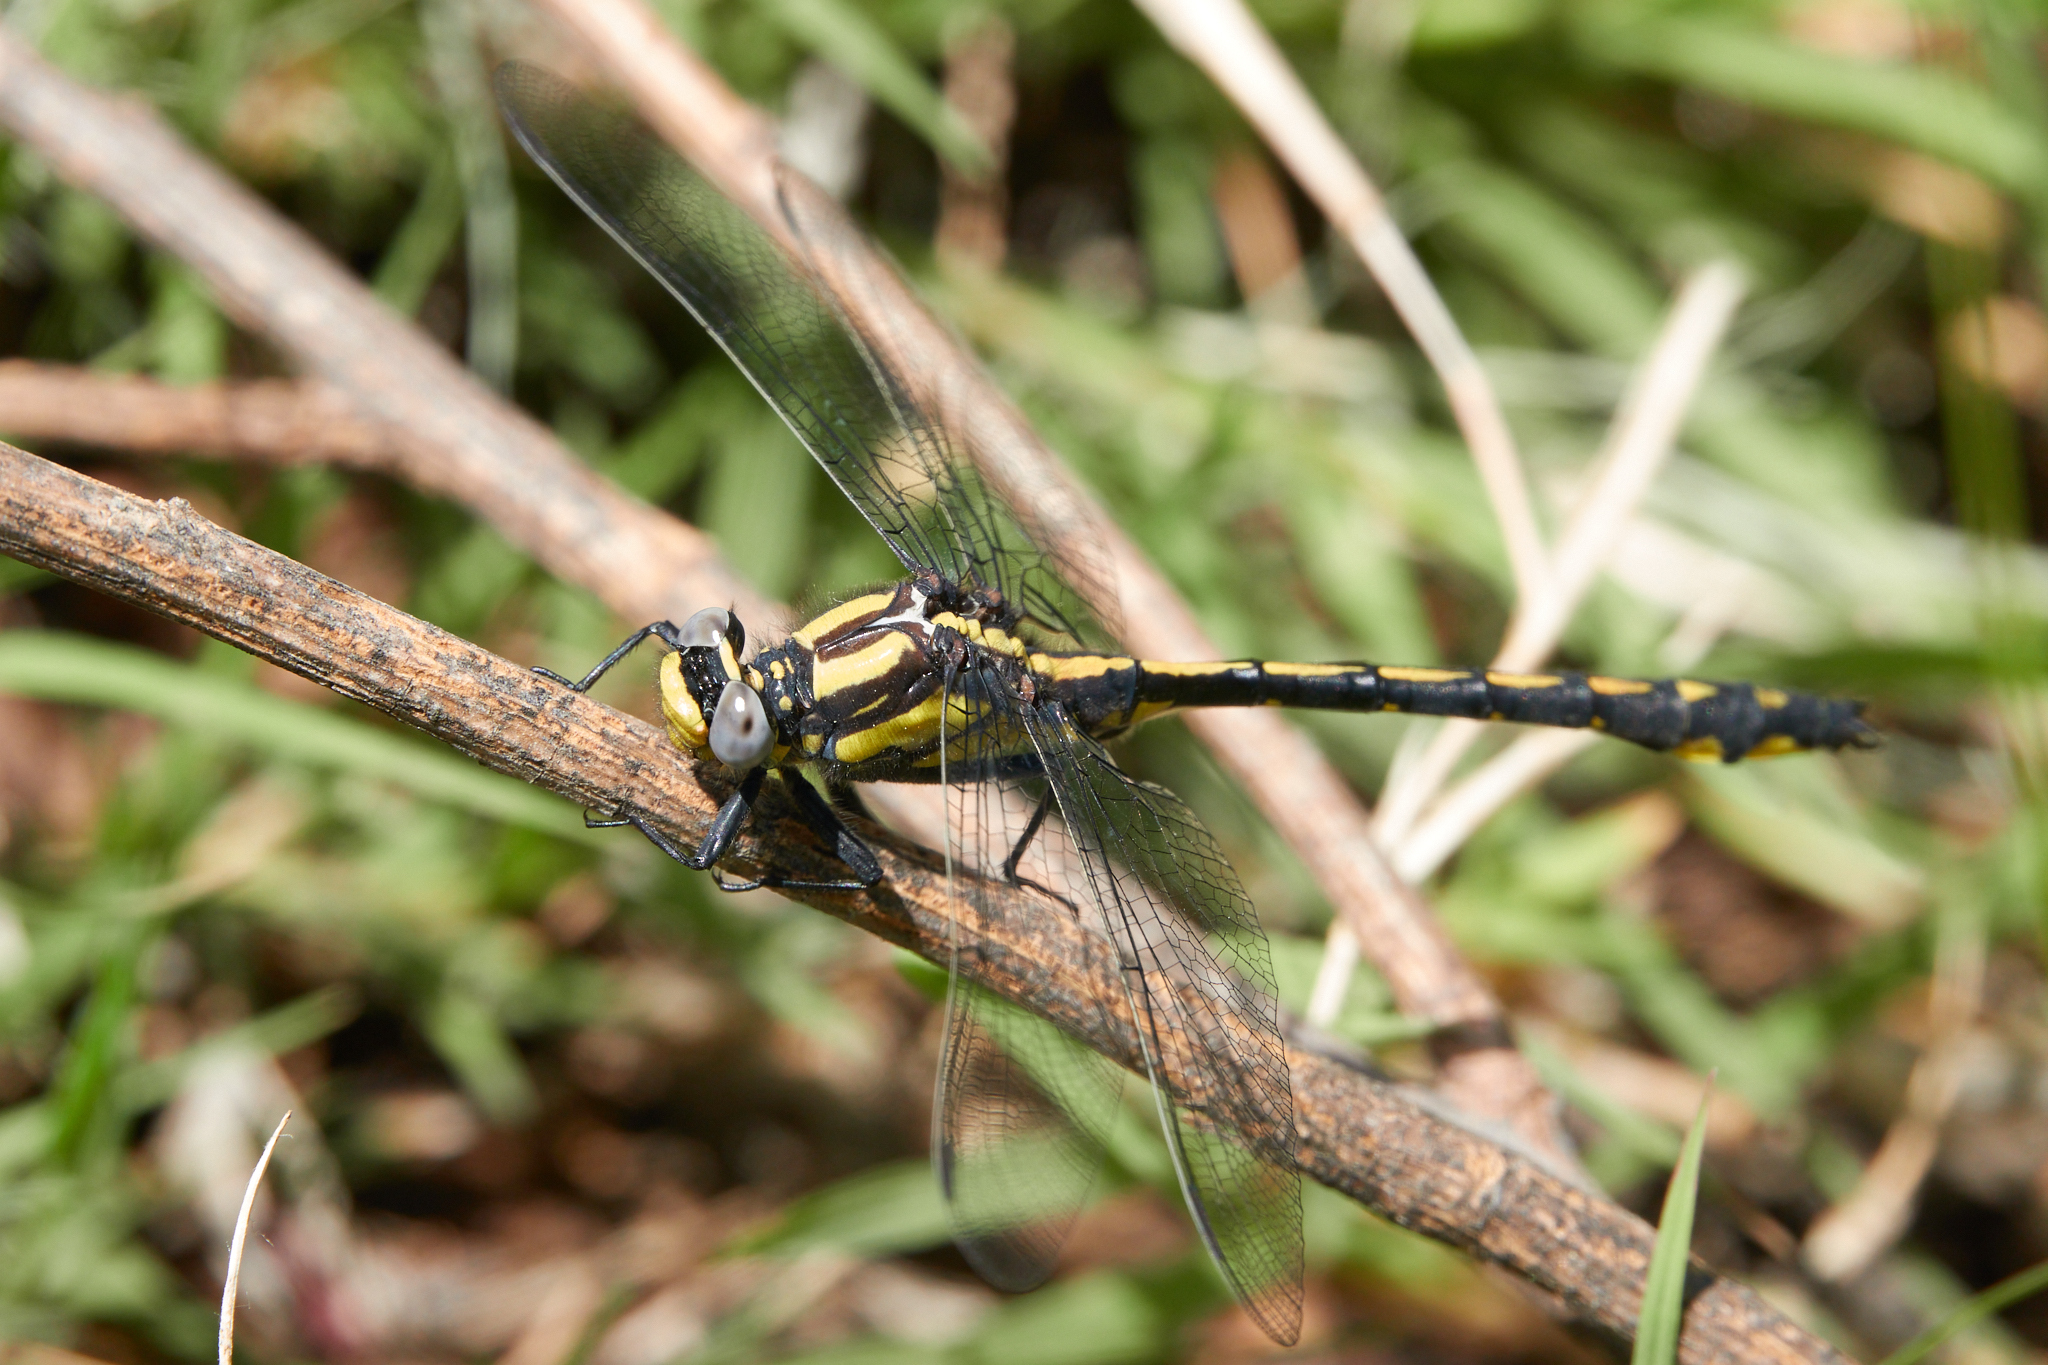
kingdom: Animalia
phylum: Arthropoda
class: Insecta
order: Odonata
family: Gomphidae
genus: Phanogomphus
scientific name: Phanogomphus kurilis
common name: Pacific clubtail
